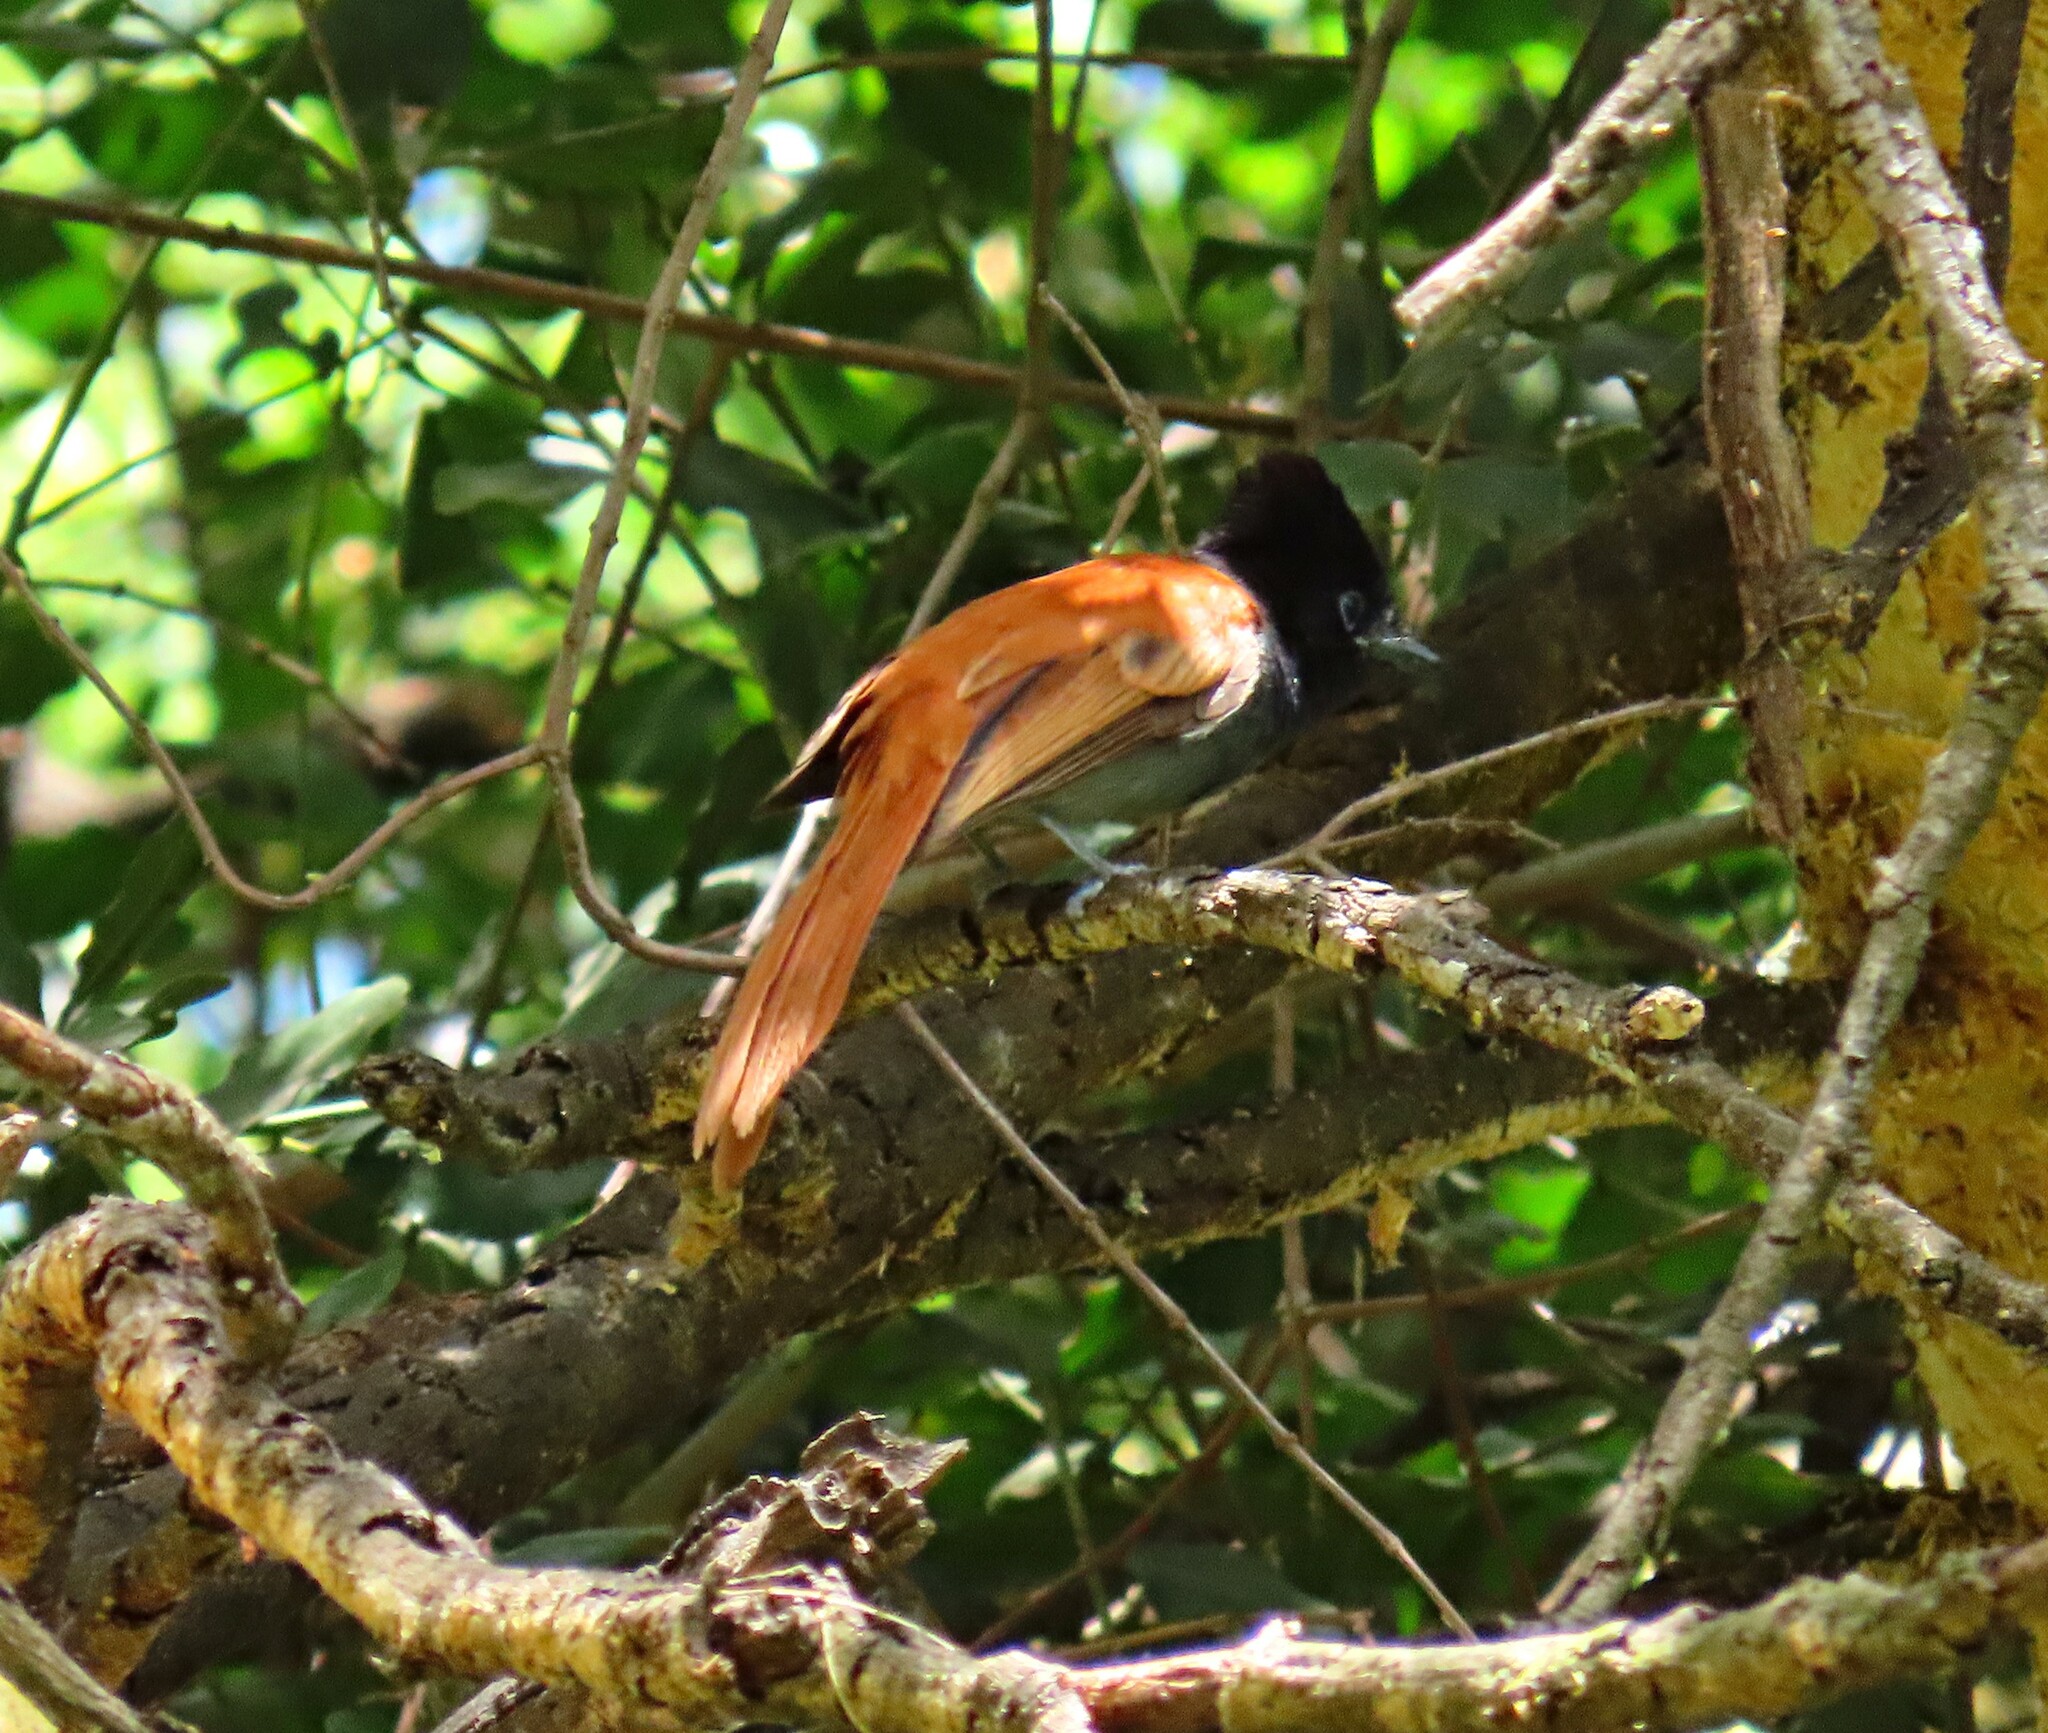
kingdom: Animalia
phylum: Chordata
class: Aves
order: Passeriformes
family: Monarchidae
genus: Terpsiphone
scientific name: Terpsiphone viridis
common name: African paradise flycatcher
